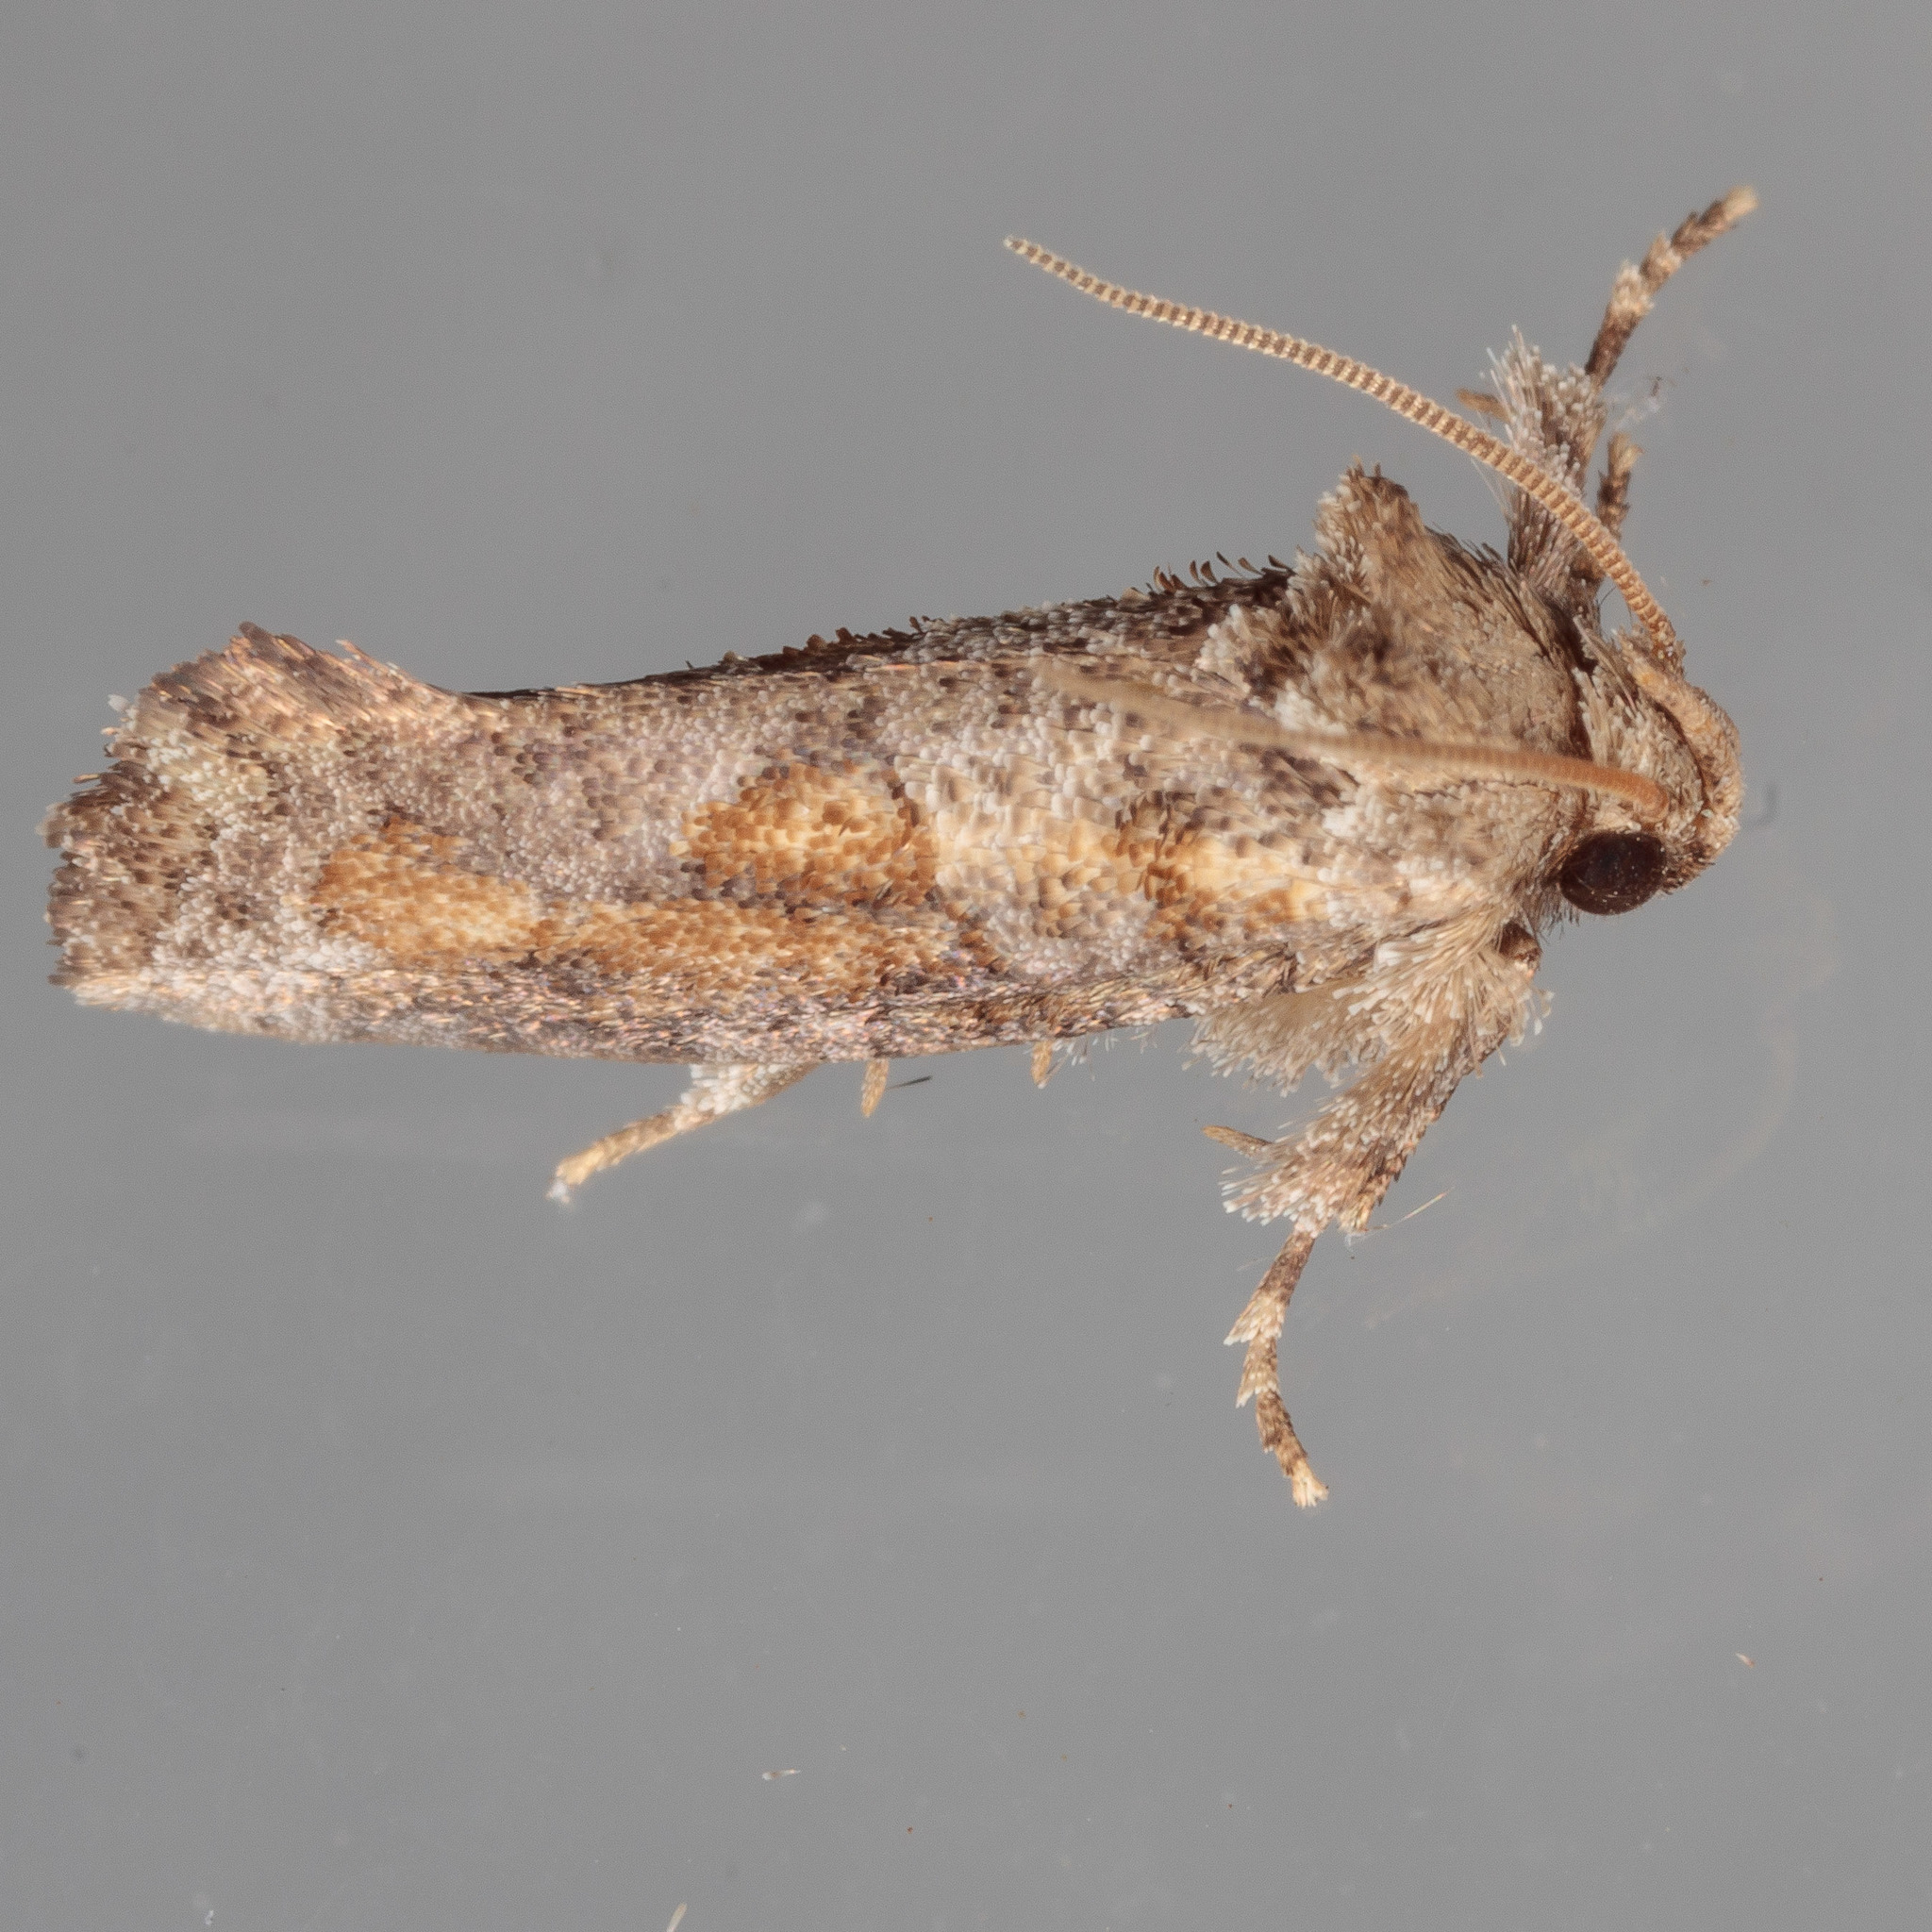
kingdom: Animalia
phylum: Arthropoda
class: Insecta
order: Lepidoptera
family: Tineidae
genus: Acrolophus
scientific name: Acrolophus piger
